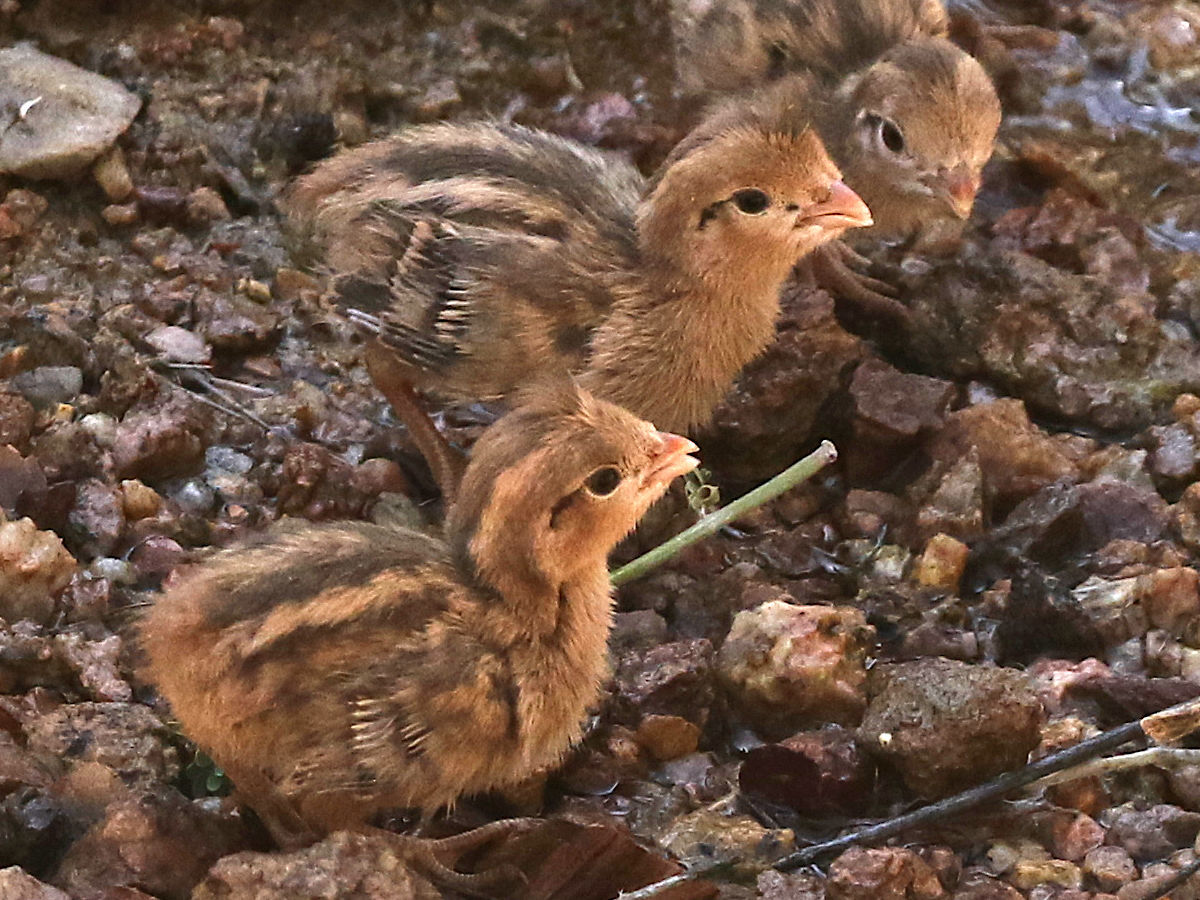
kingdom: Animalia
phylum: Chordata
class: Aves
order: Galliformes
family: Odontophoridae
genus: Callipepla
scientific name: Callipepla gambelii
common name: Gambel's quail
